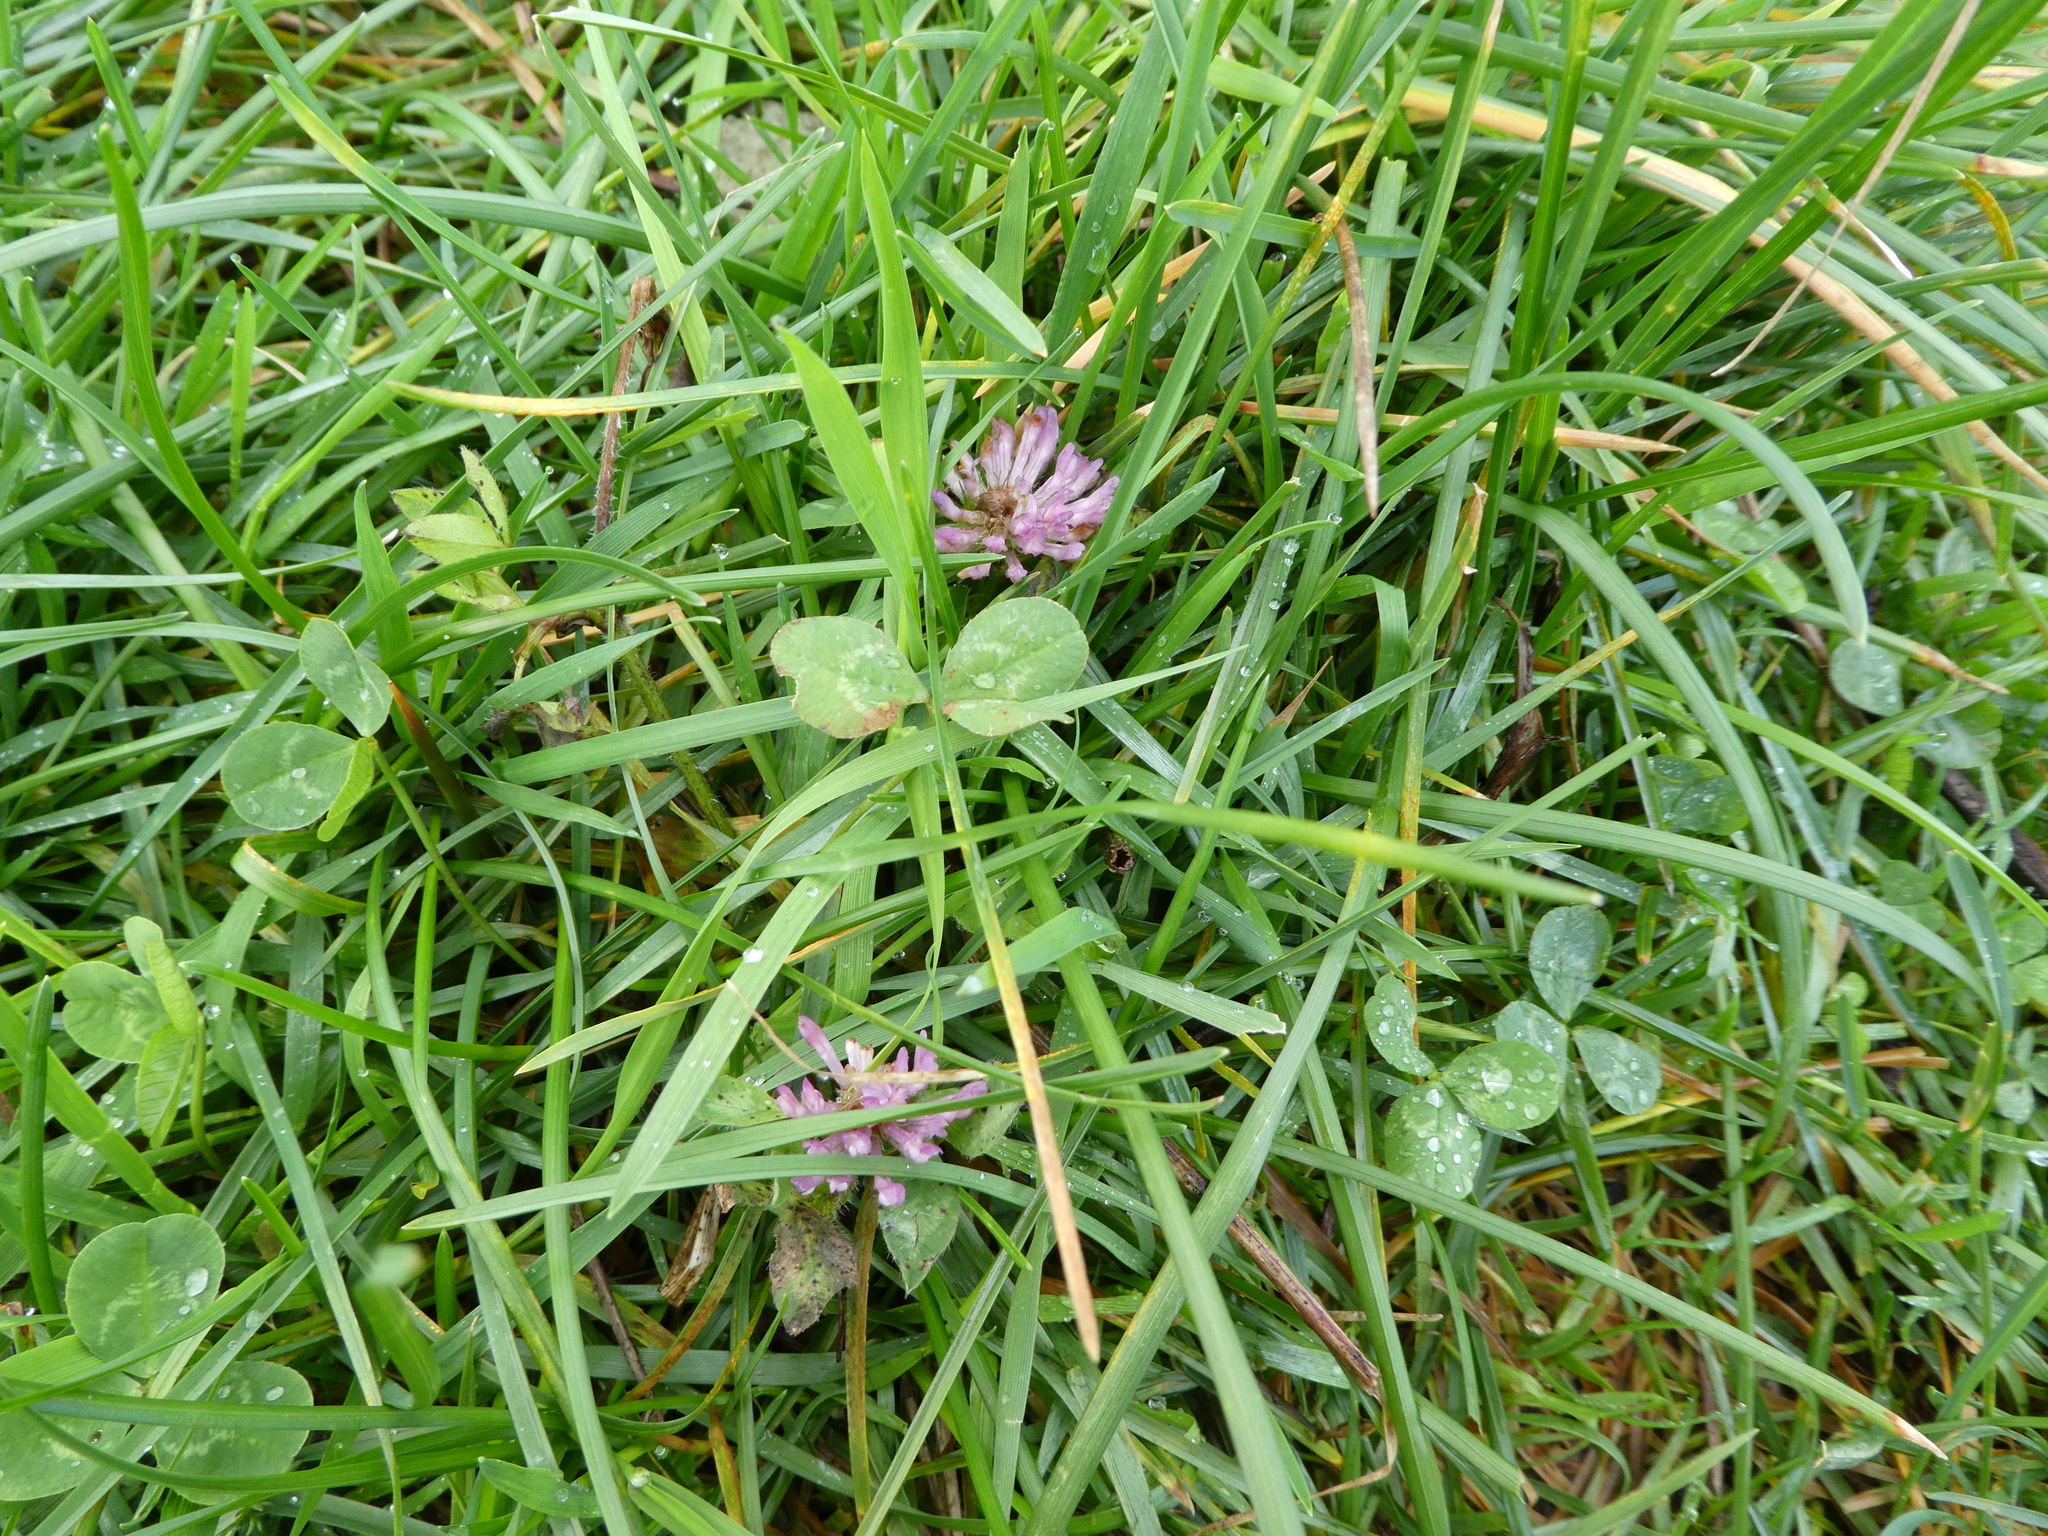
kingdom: Plantae
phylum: Tracheophyta
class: Magnoliopsida
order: Fabales
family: Fabaceae
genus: Trifolium
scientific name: Trifolium pratense
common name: Red clover
